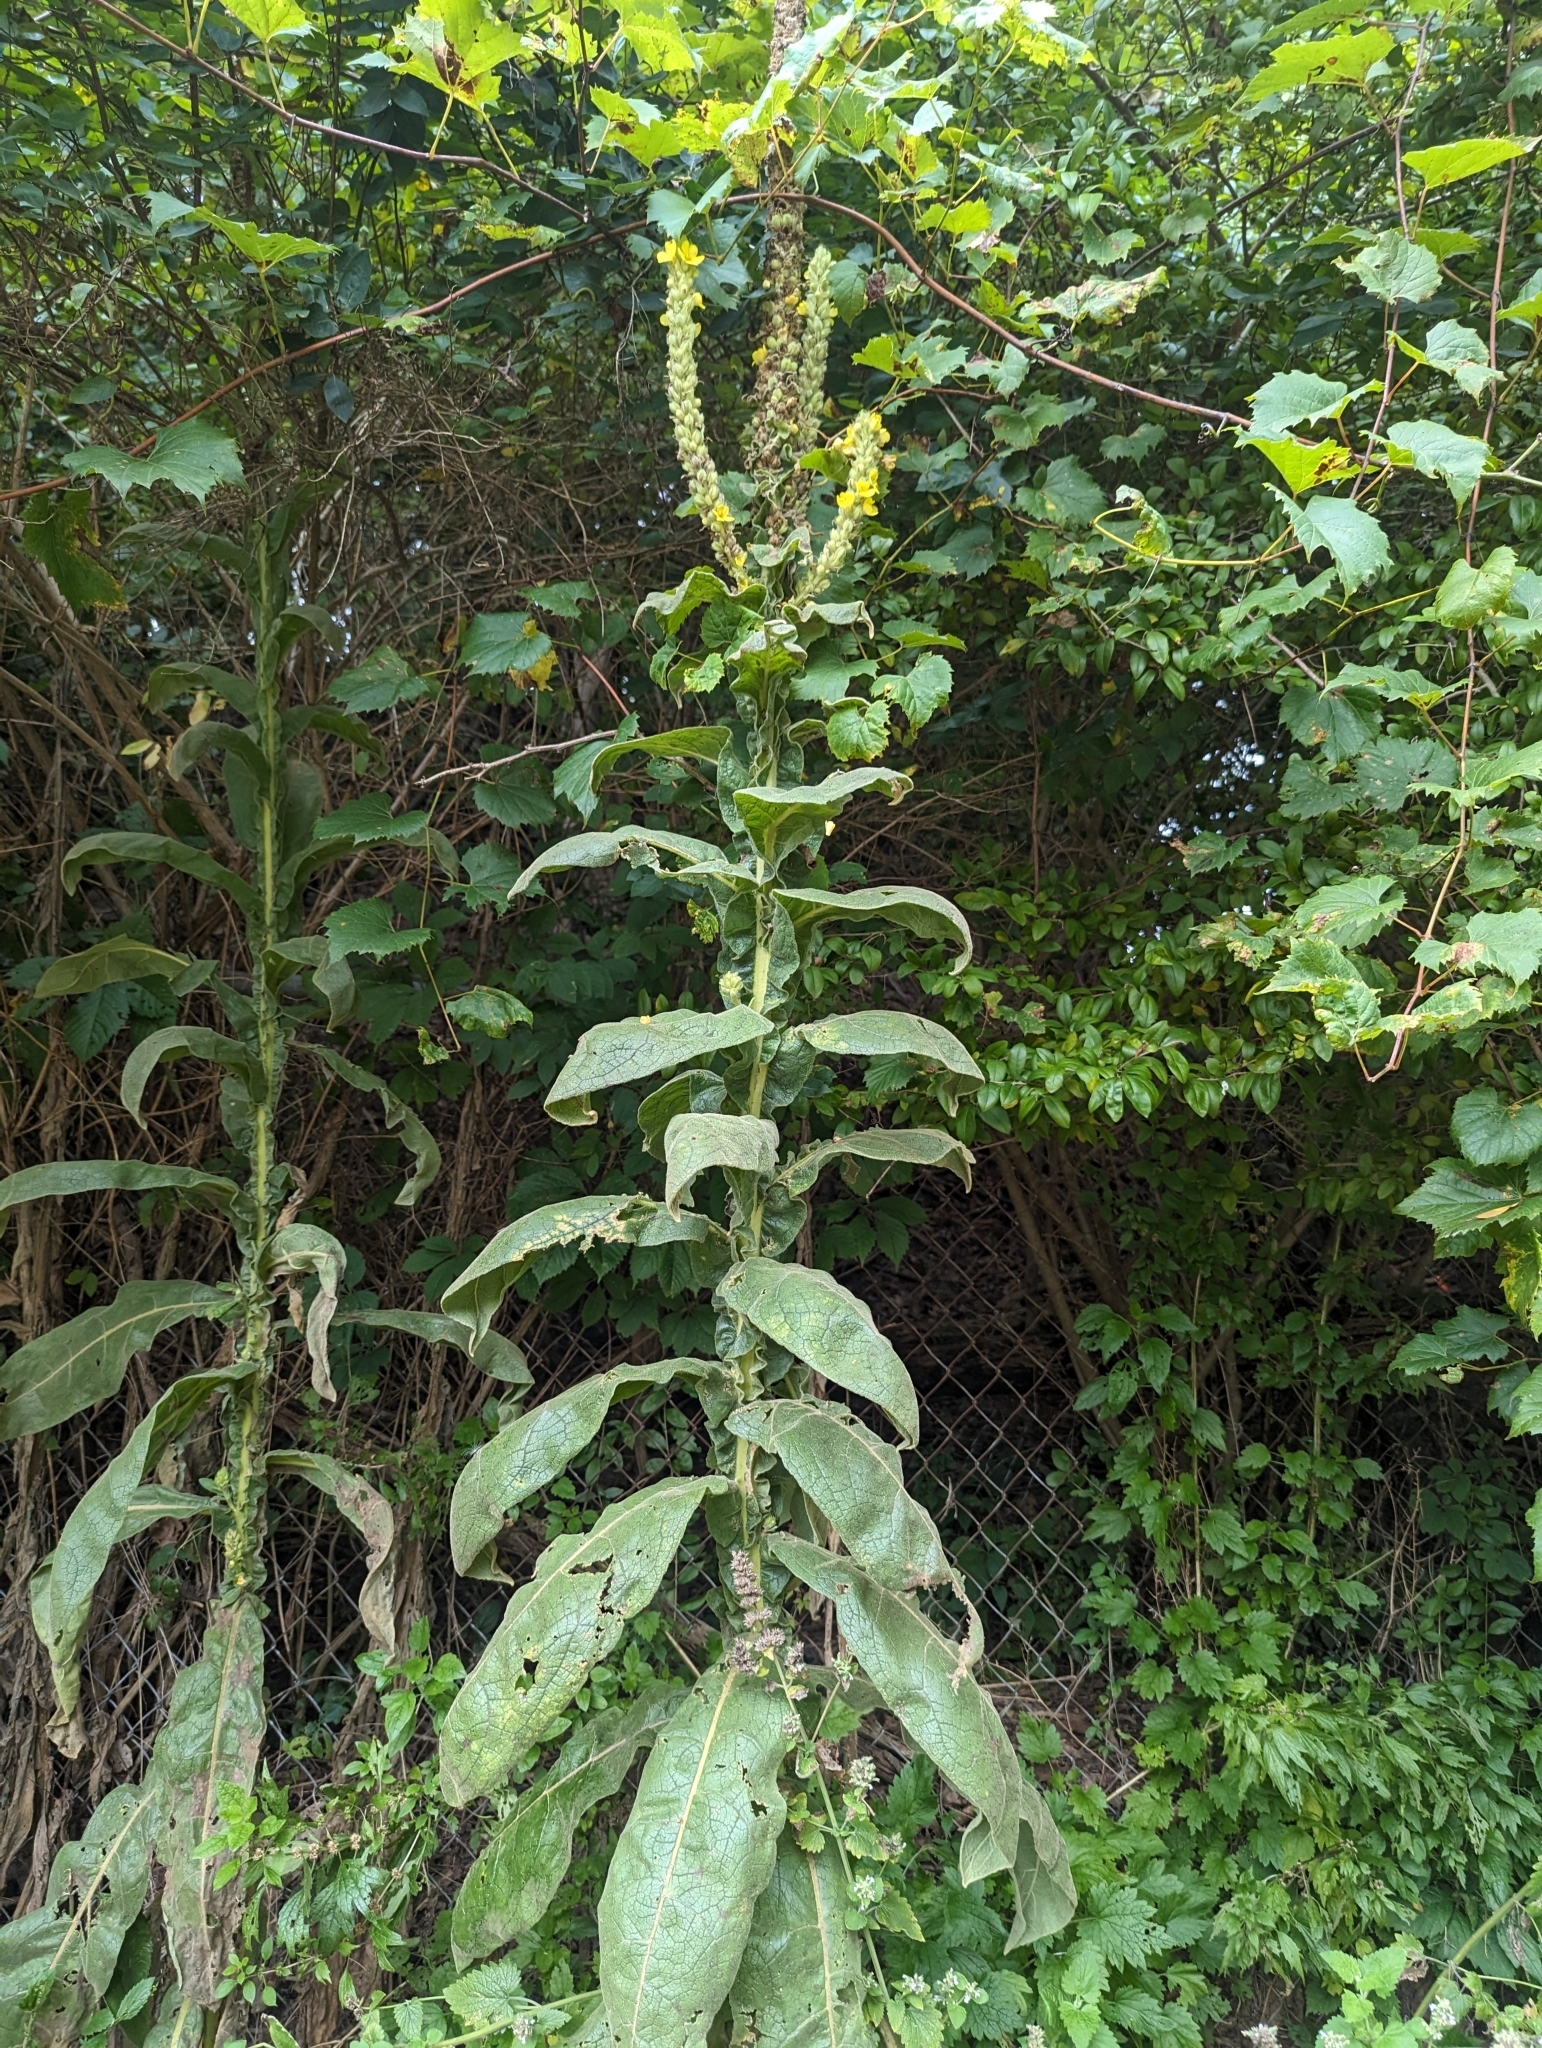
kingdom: Plantae
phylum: Tracheophyta
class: Magnoliopsida
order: Lamiales
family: Scrophulariaceae
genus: Verbascum
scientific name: Verbascum thapsus
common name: Common mullein
